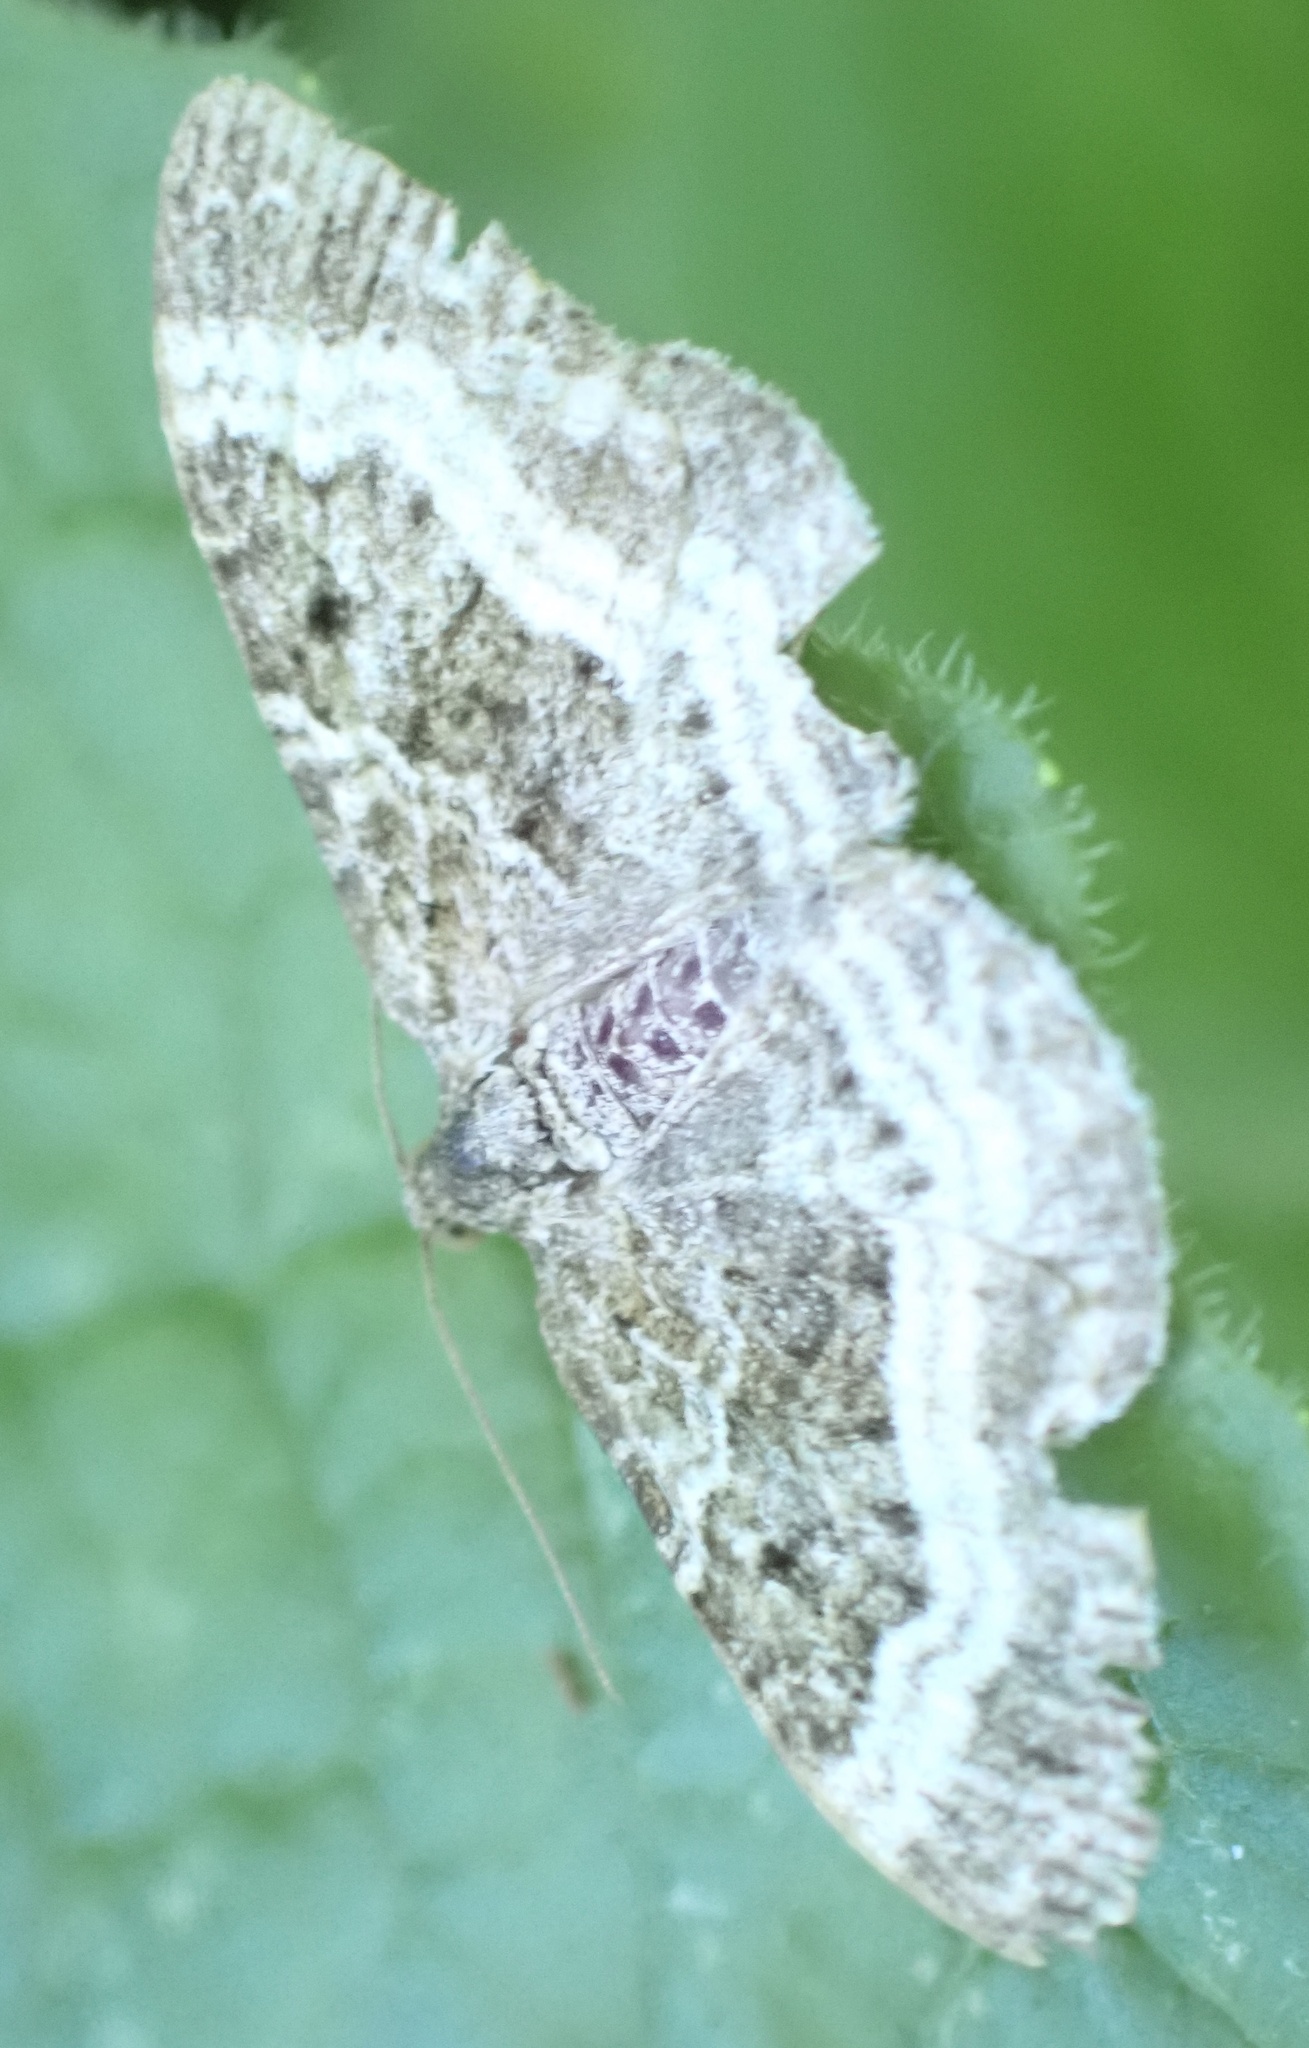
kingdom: Animalia
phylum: Arthropoda
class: Insecta
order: Lepidoptera
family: Geometridae
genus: Epirrhoe
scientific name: Epirrhoe alternata
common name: Common carpet
